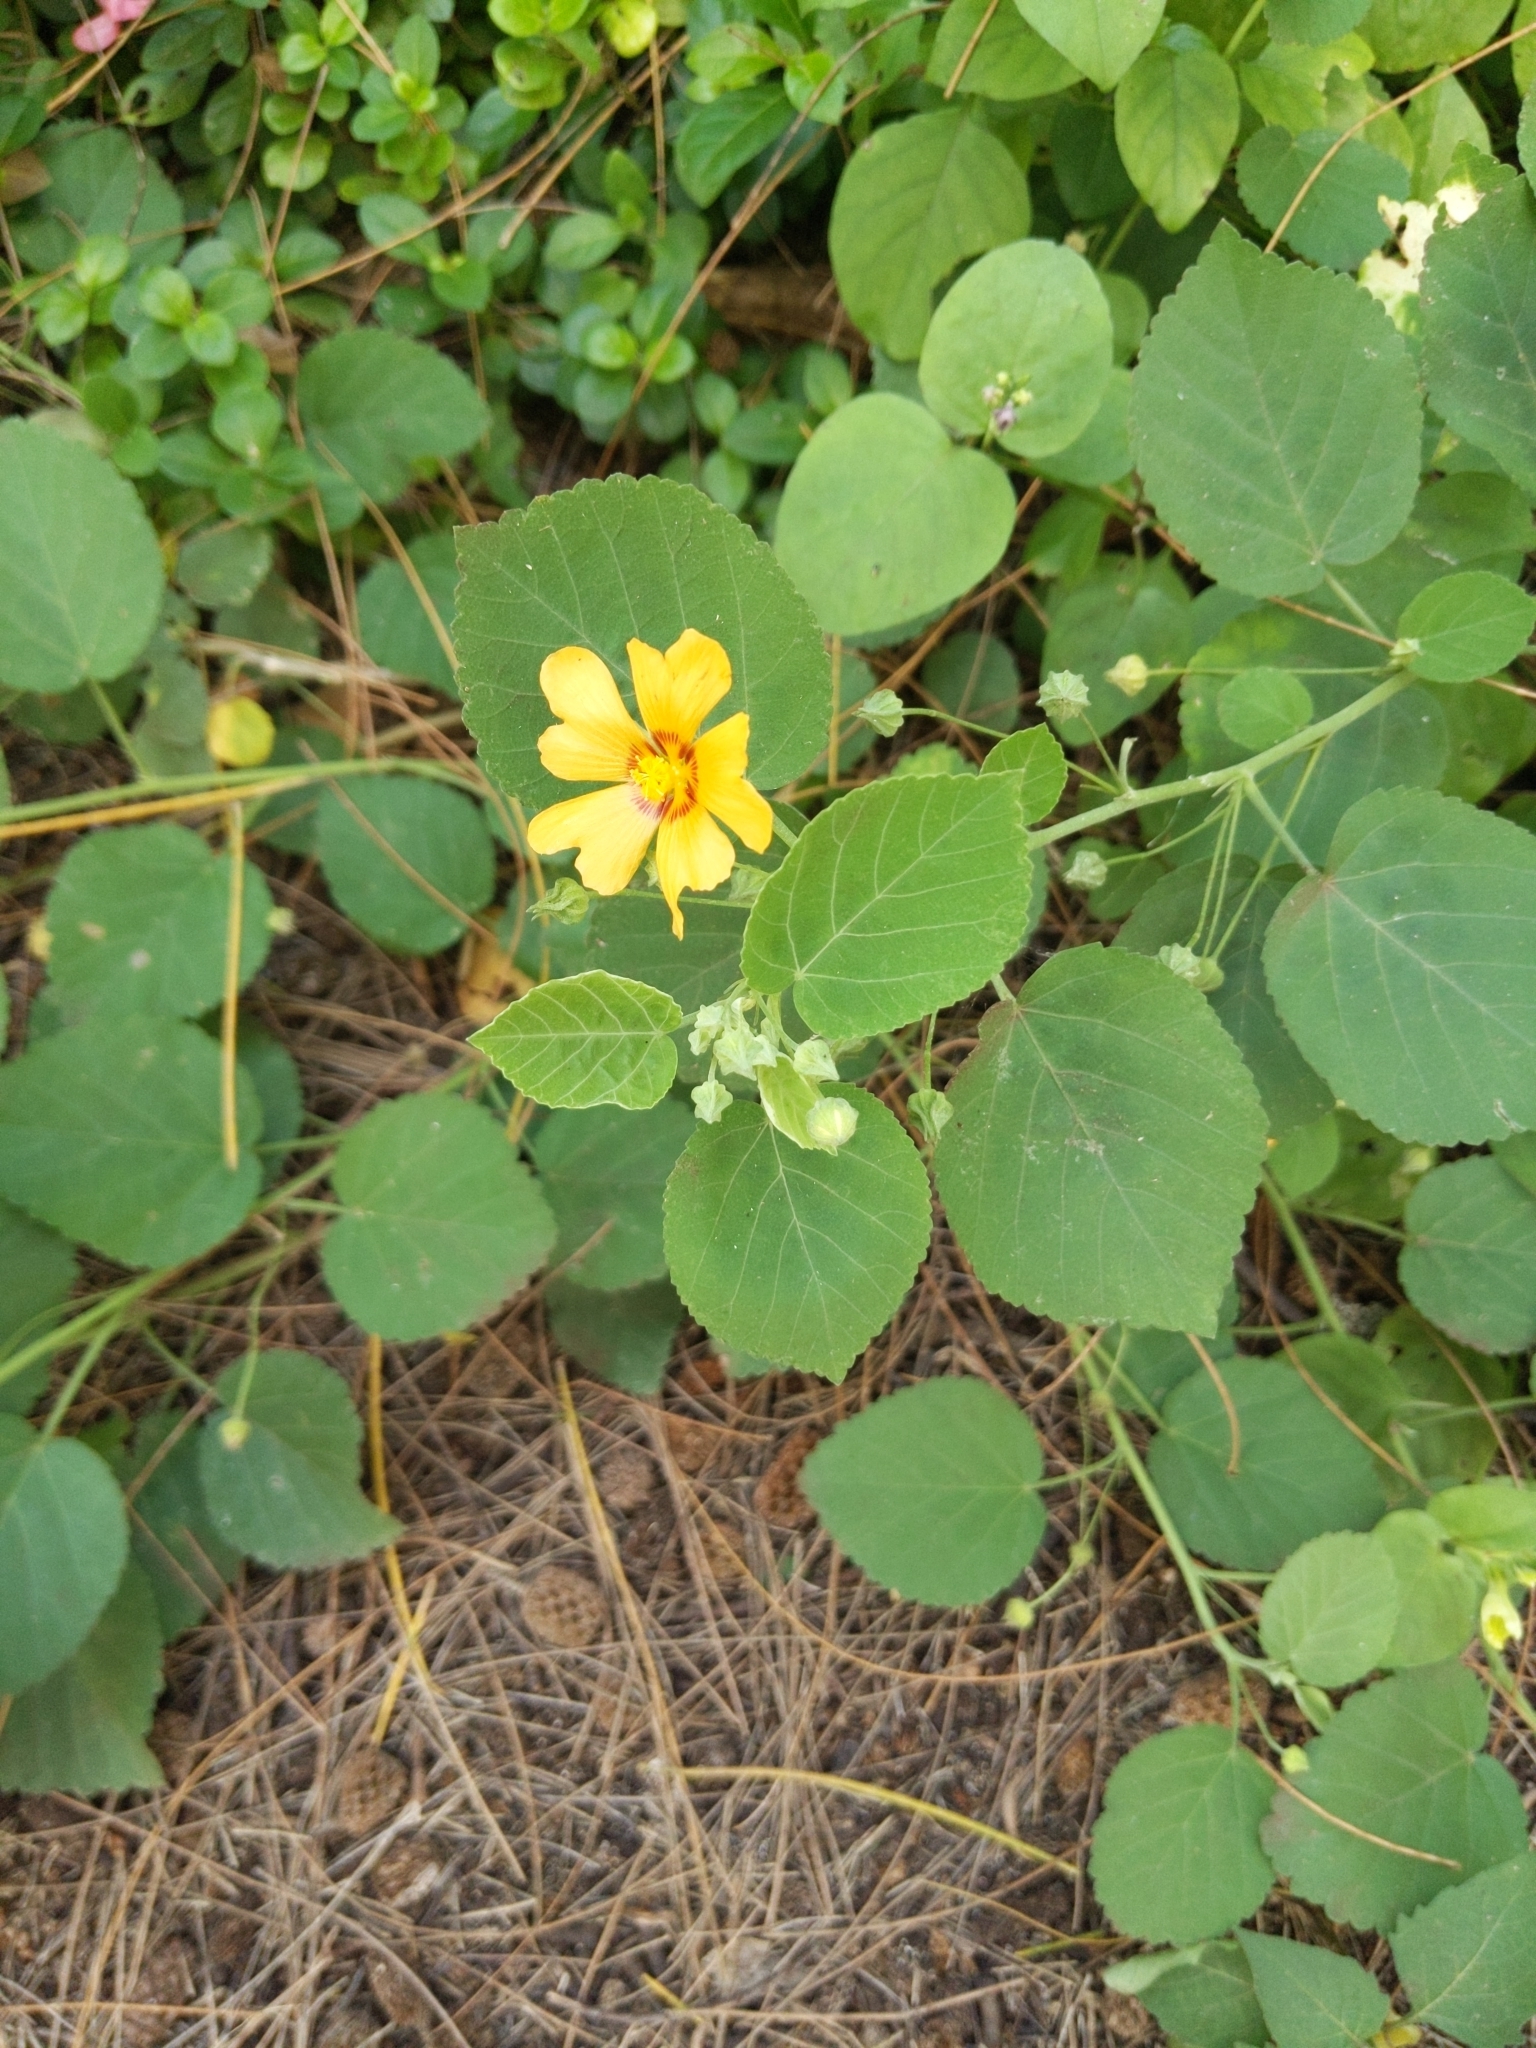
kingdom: Plantae
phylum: Tracheophyta
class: Magnoliopsida
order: Malvales
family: Malvaceae
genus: Sida
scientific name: Sida fallax
